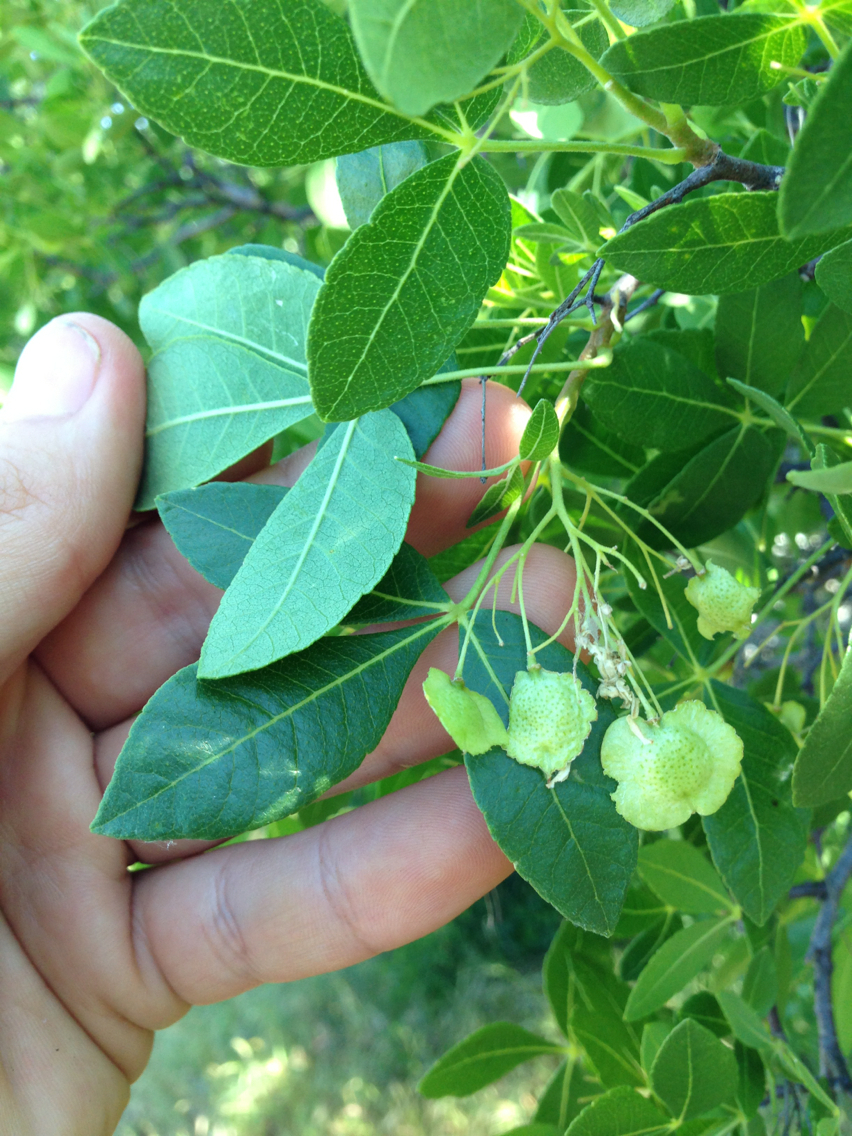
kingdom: Plantae
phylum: Tracheophyta
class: Magnoliopsida
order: Sapindales
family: Rutaceae
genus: Ptelea
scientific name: Ptelea crenulata
